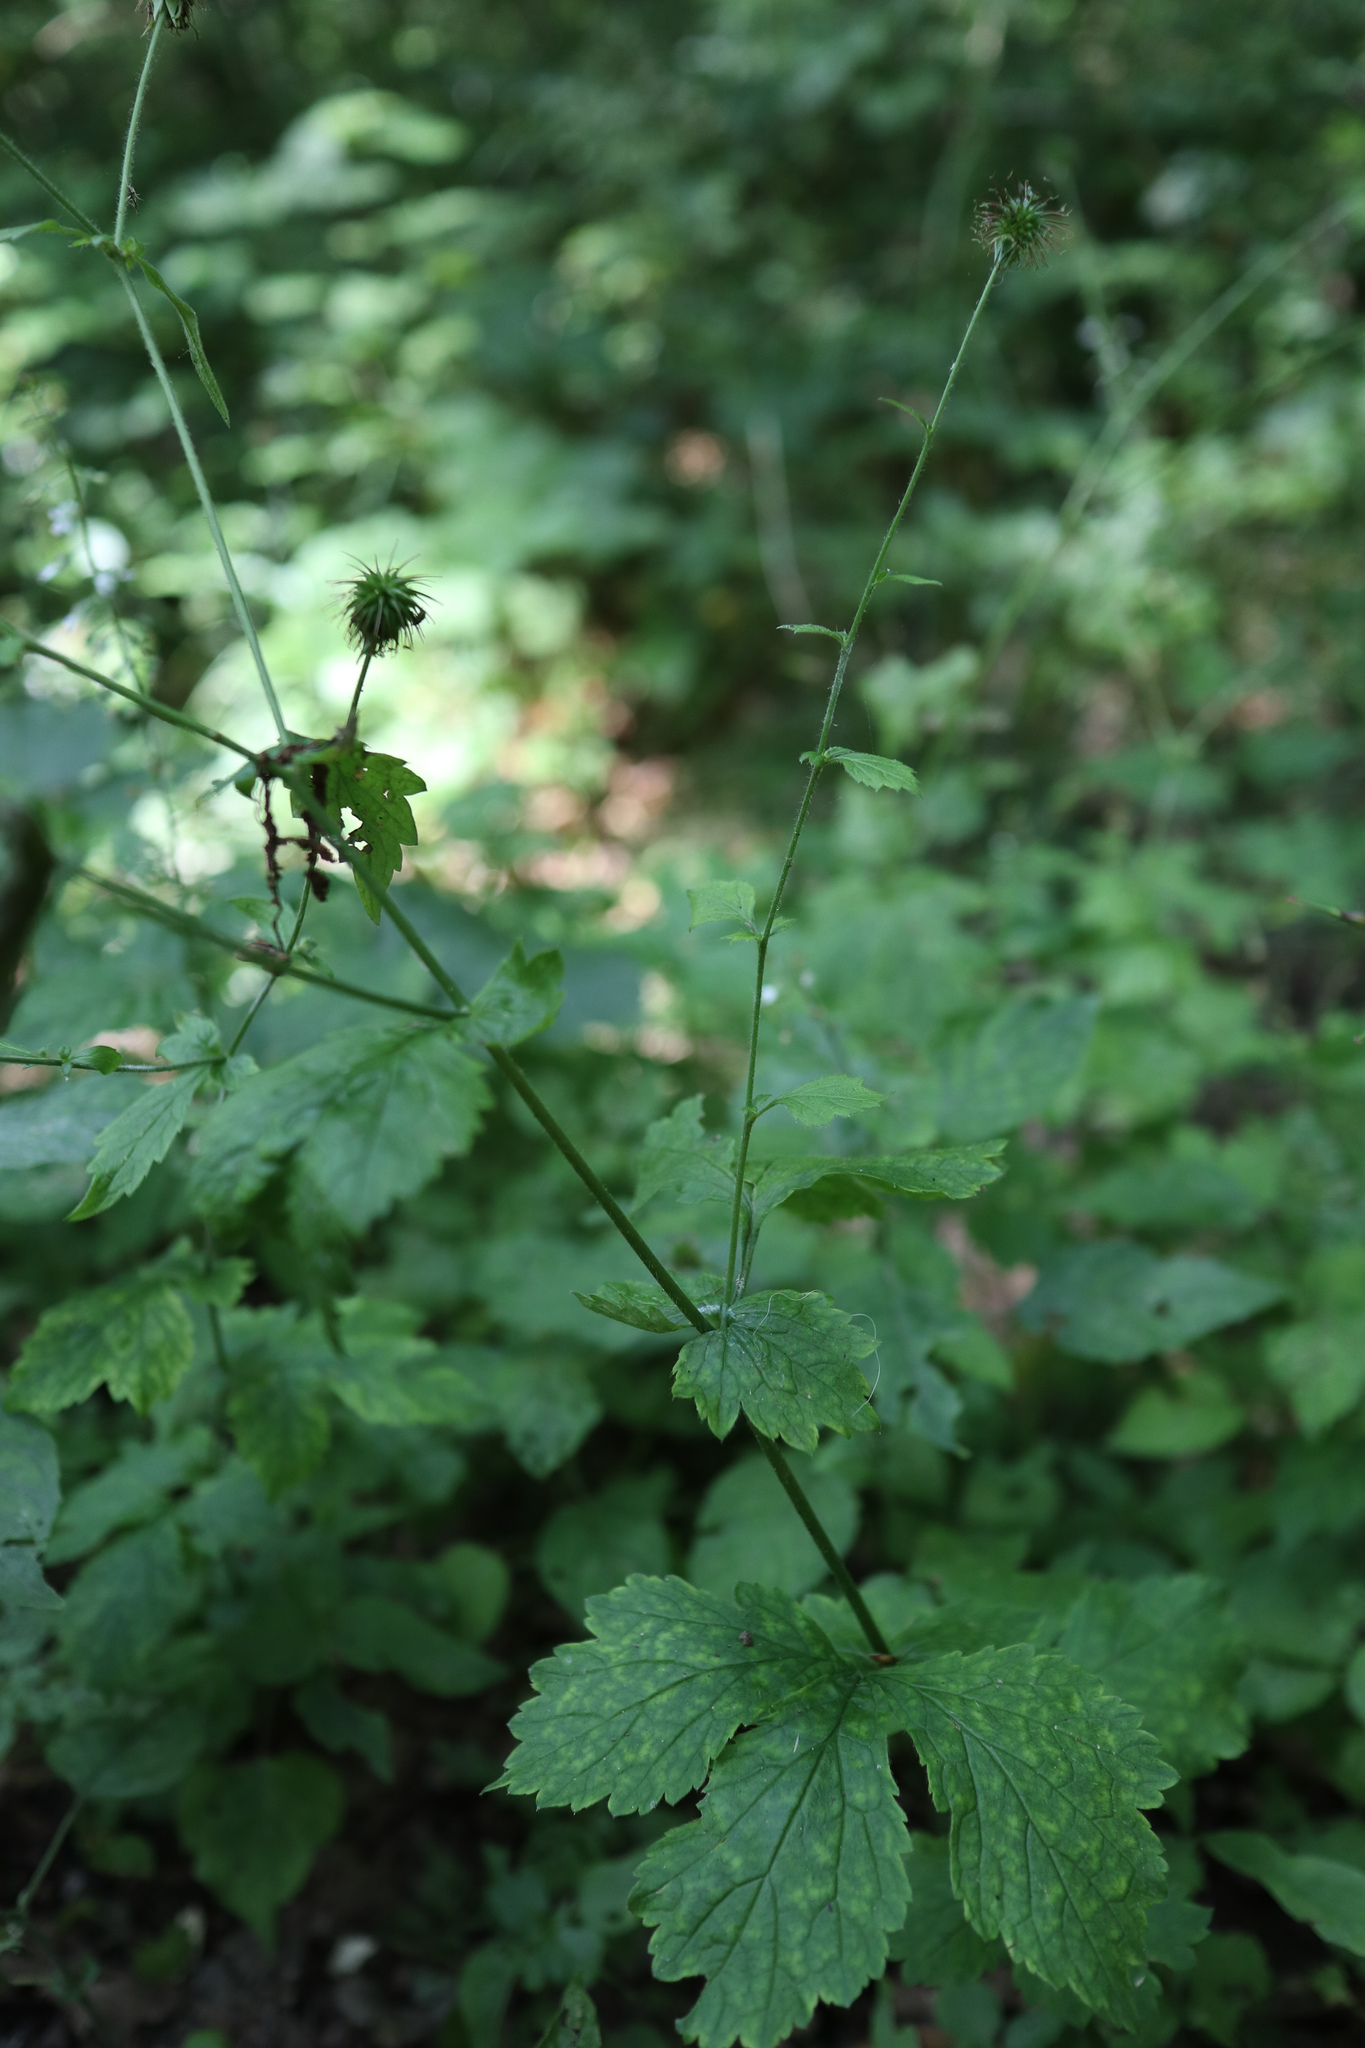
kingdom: Plantae
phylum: Tracheophyta
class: Magnoliopsida
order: Rosales
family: Rosaceae
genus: Geum
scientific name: Geum urbanum
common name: Wood avens
